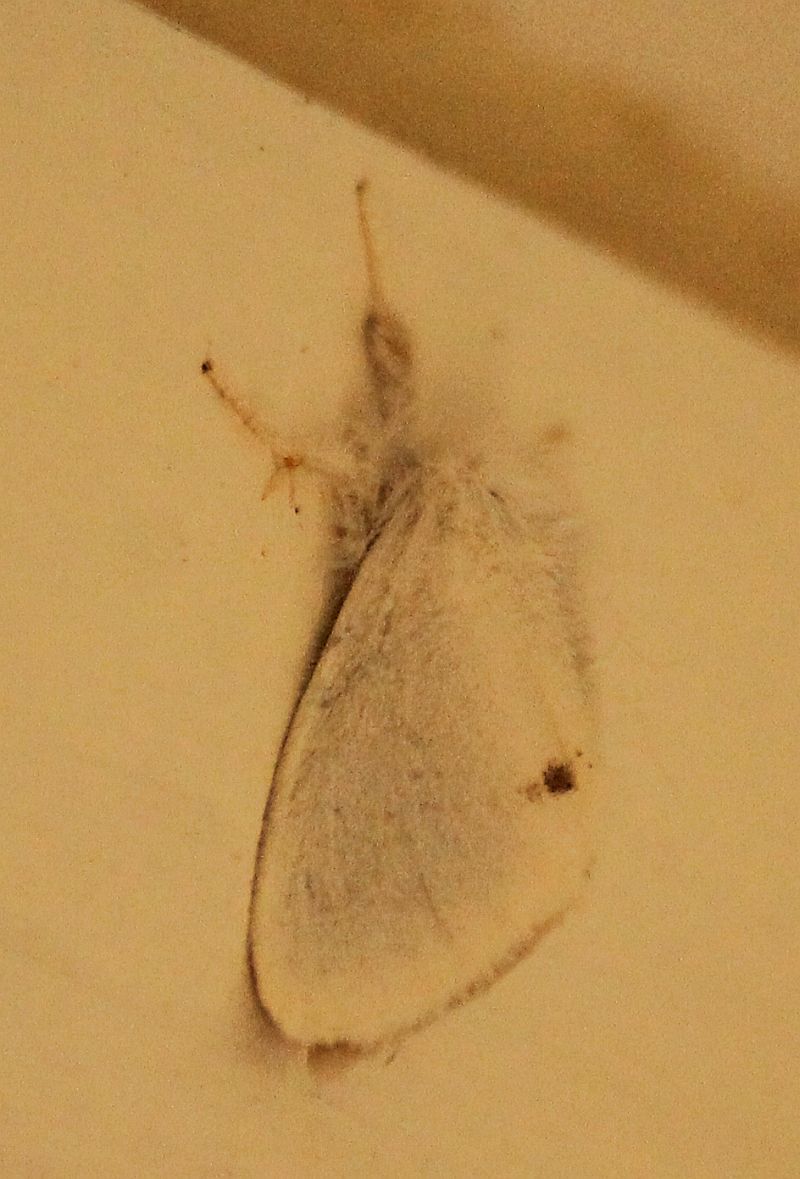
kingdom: Animalia
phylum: Arthropoda
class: Insecta
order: Lepidoptera
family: Erebidae
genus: Sphrageidus
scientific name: Sphrageidus similis
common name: Yellow-tail
